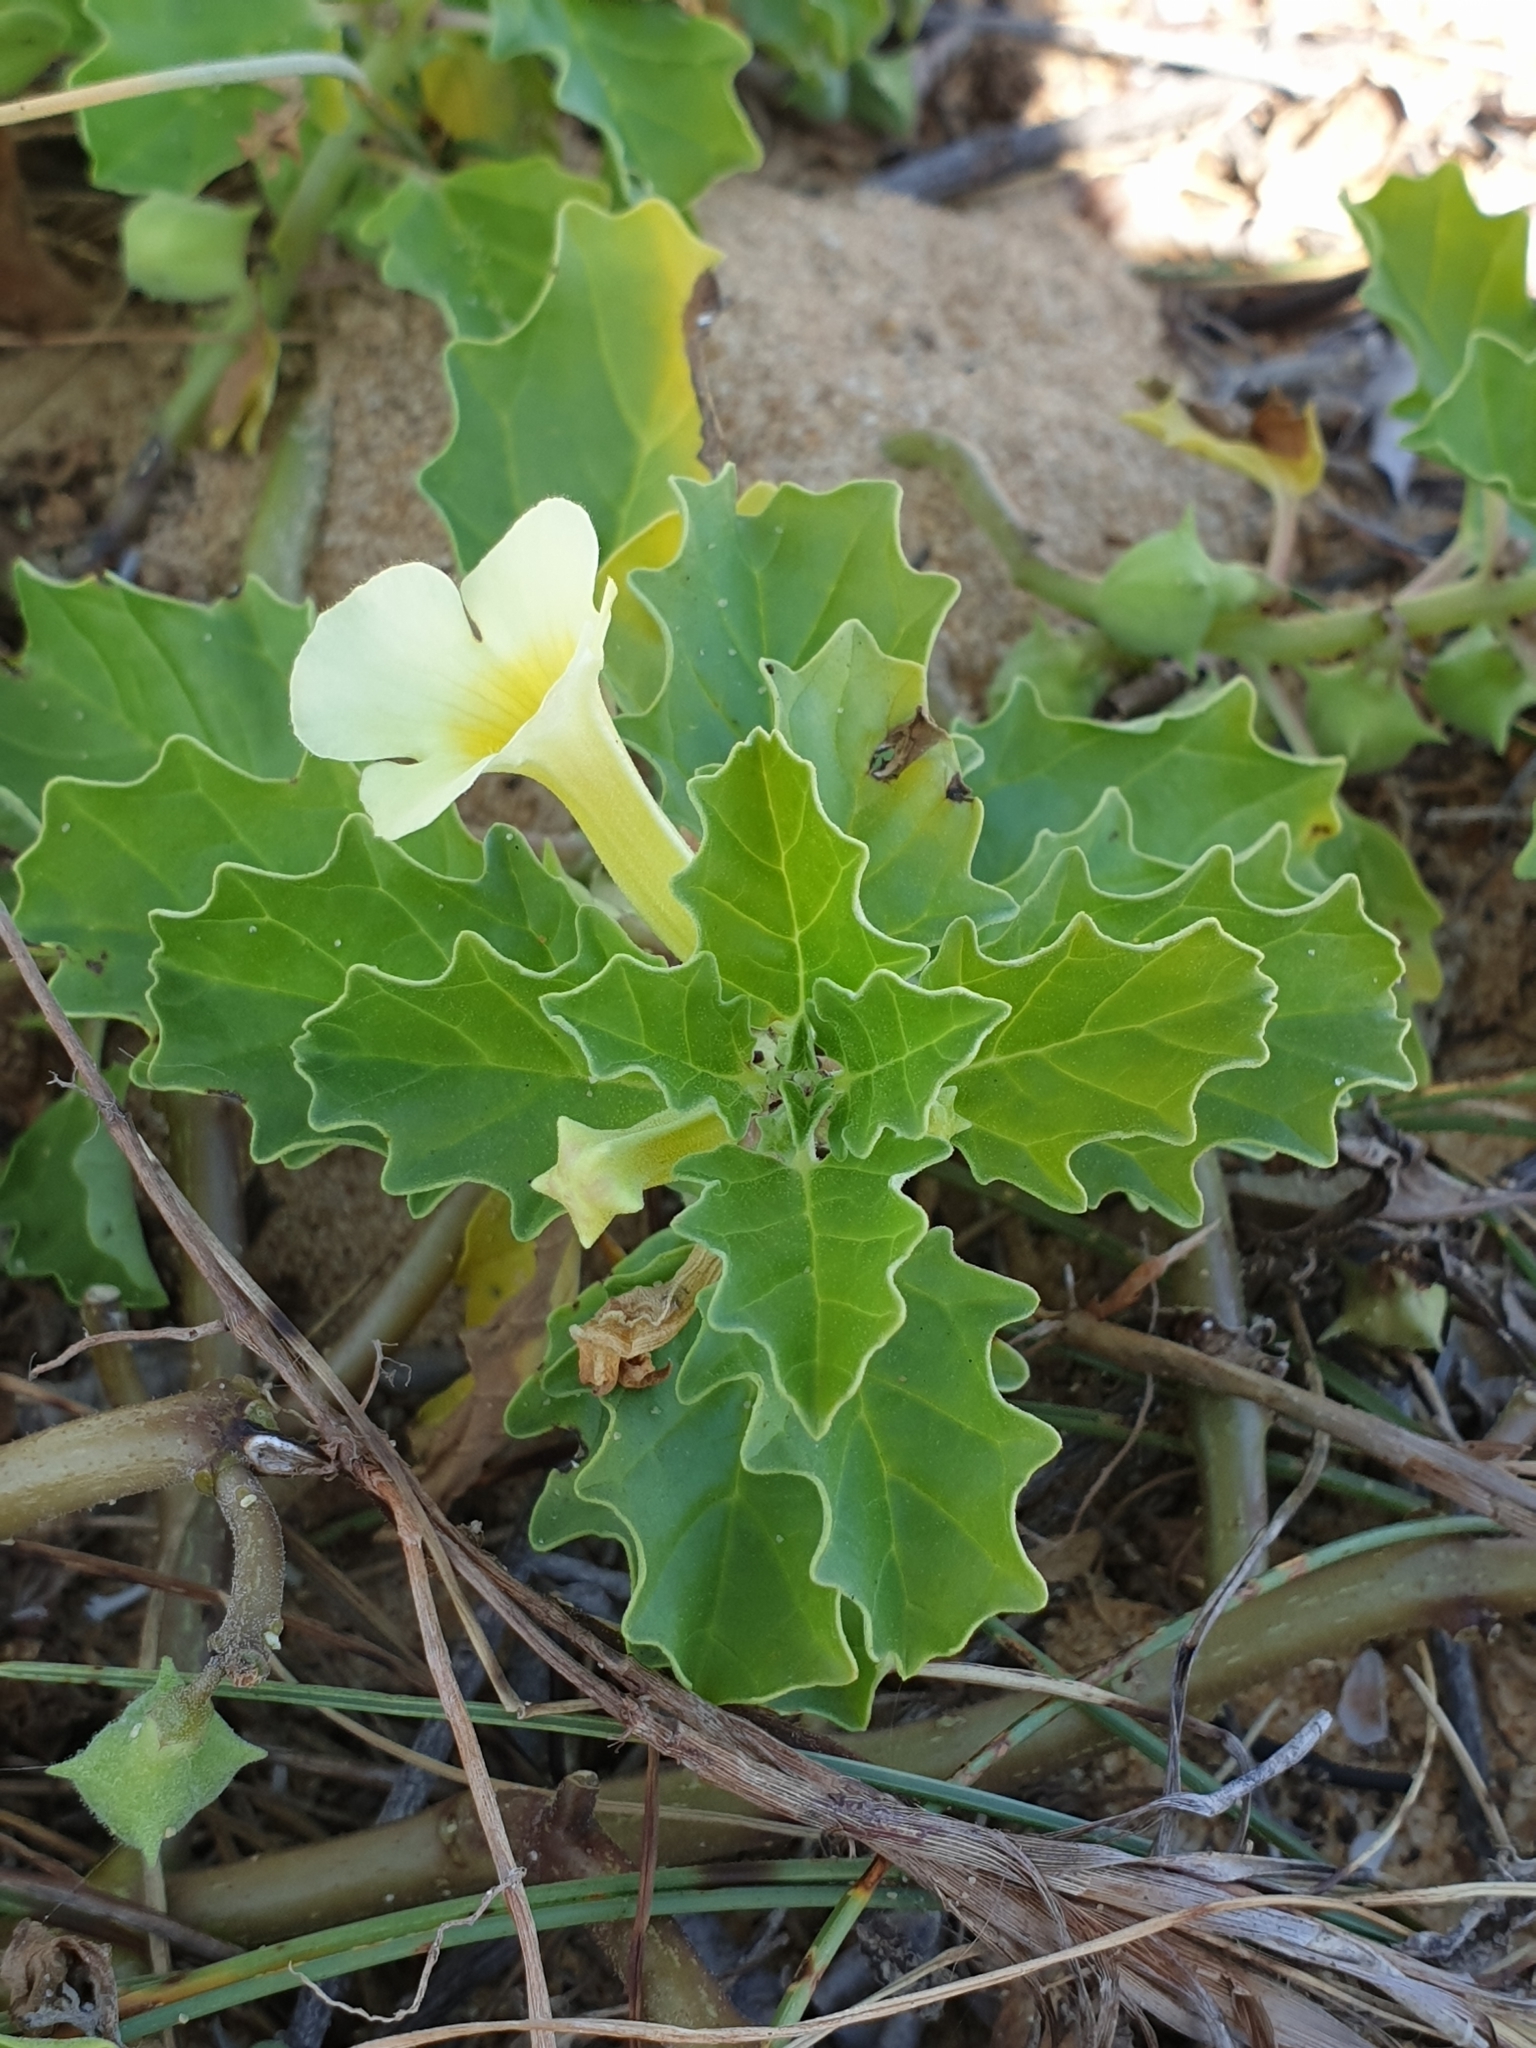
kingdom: Plantae
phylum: Tracheophyta
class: Magnoliopsida
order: Lamiales
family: Pedaliaceae
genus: Pedalium
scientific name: Pedalium murex
